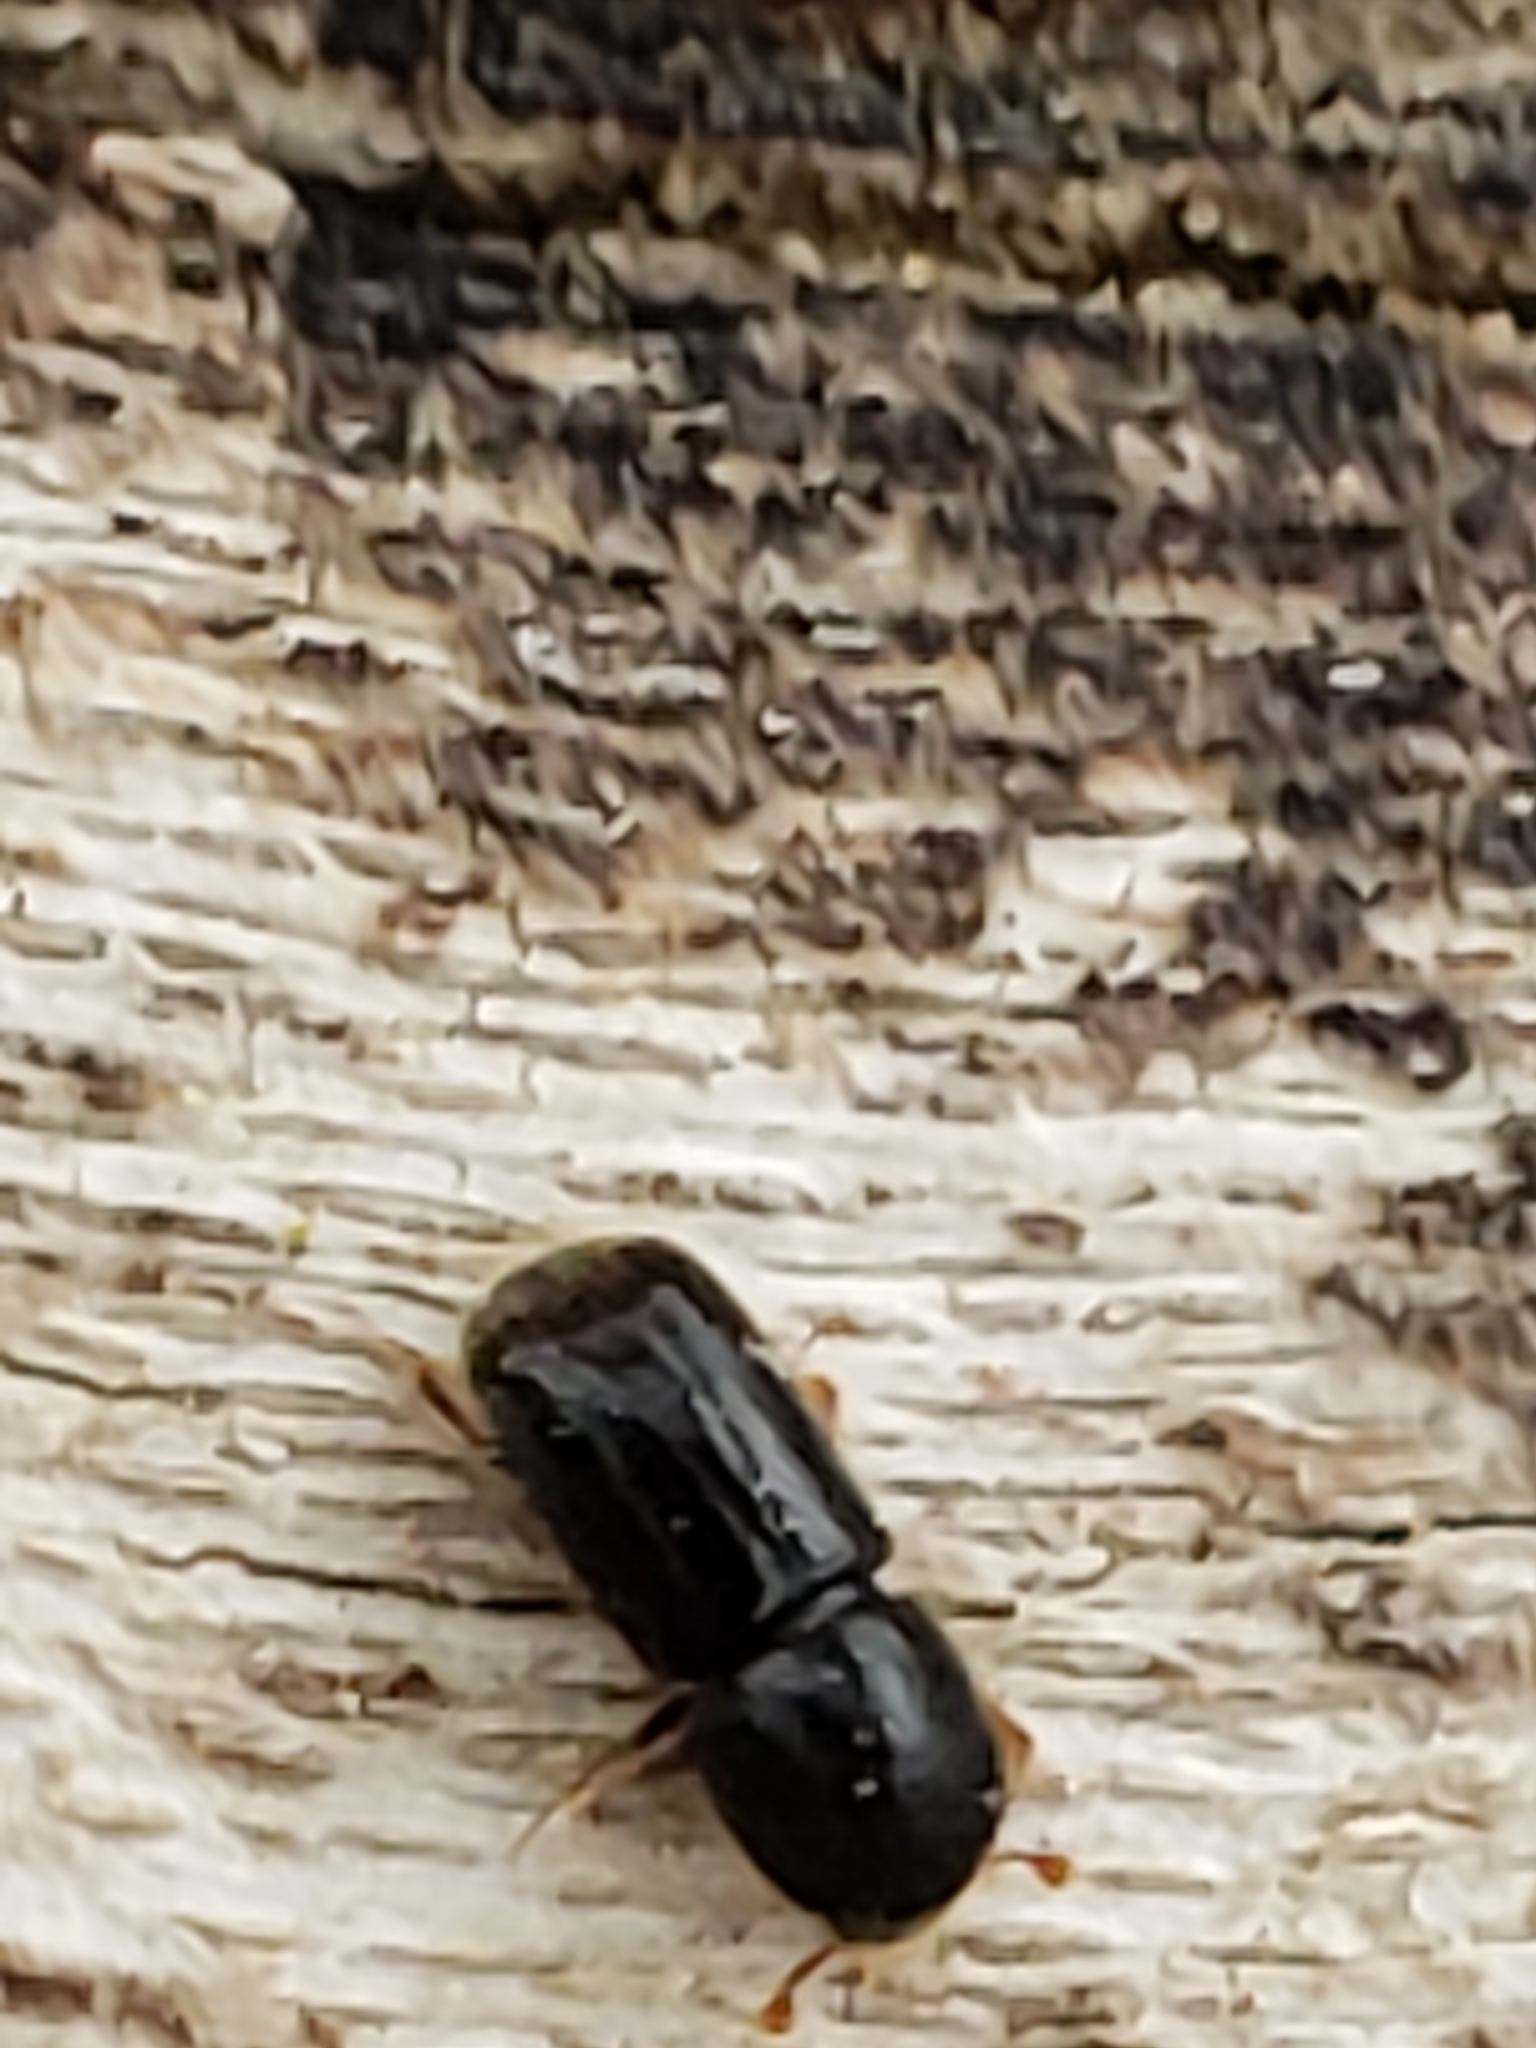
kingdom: Animalia
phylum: Arthropoda
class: Insecta
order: Coleoptera
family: Curculionidae
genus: Xyleborus
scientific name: Xyleborus atratus
